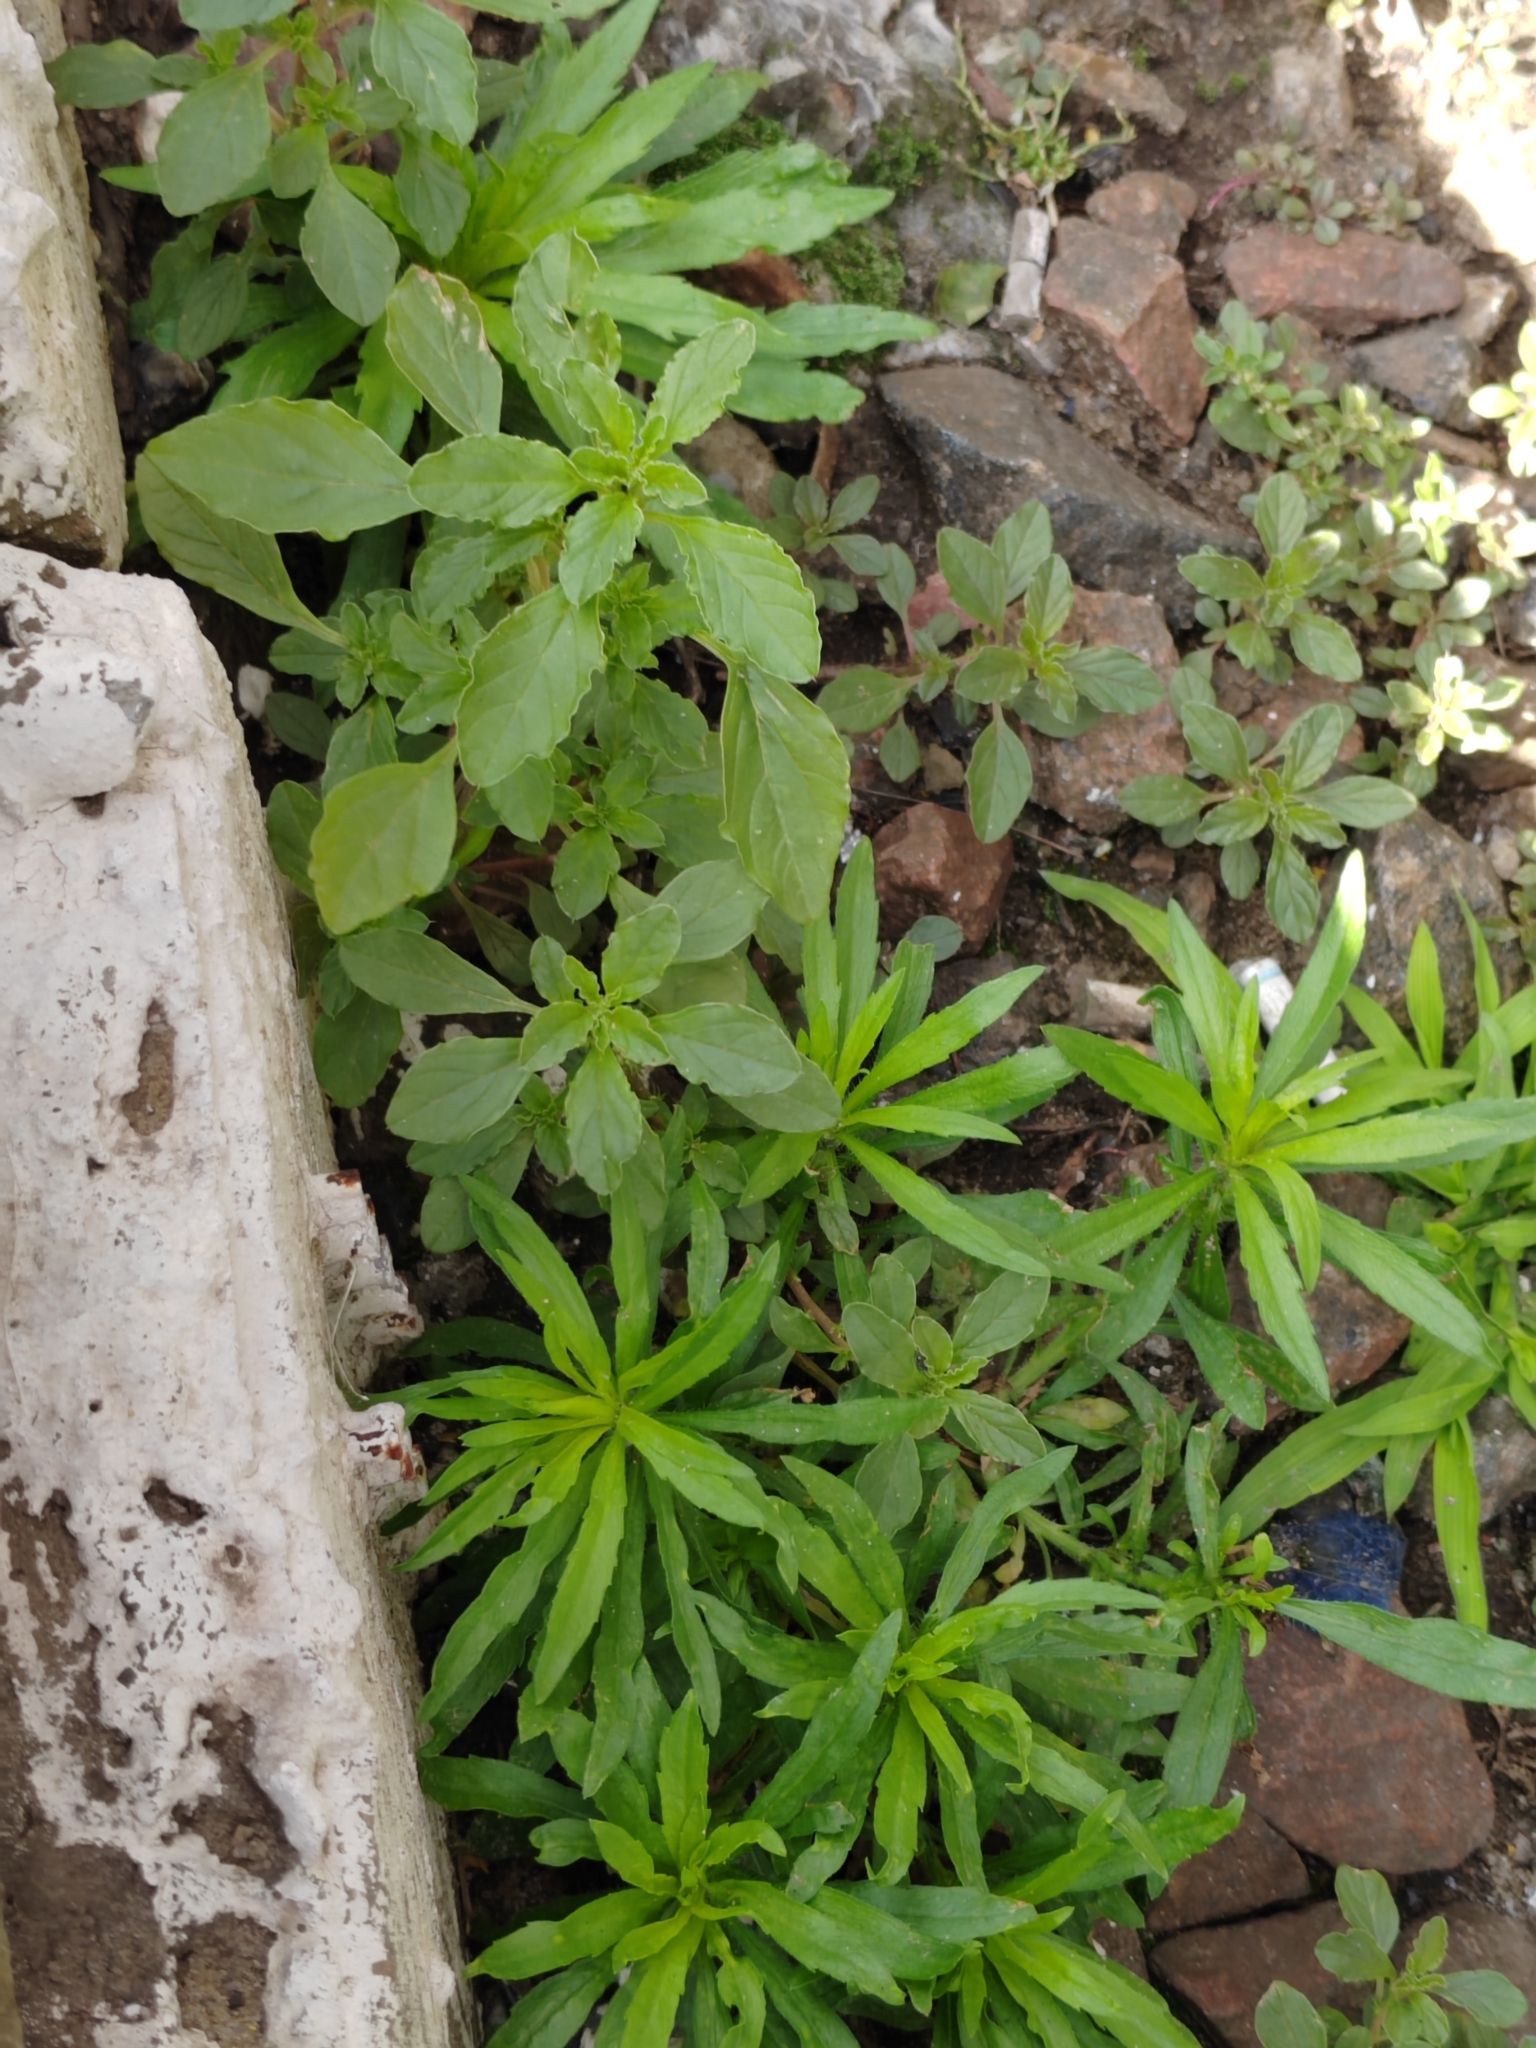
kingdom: Plantae
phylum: Tracheophyta
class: Magnoliopsida
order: Caryophyllales
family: Amaranthaceae
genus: Amaranthus
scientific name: Amaranthus albus
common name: White pigweed
